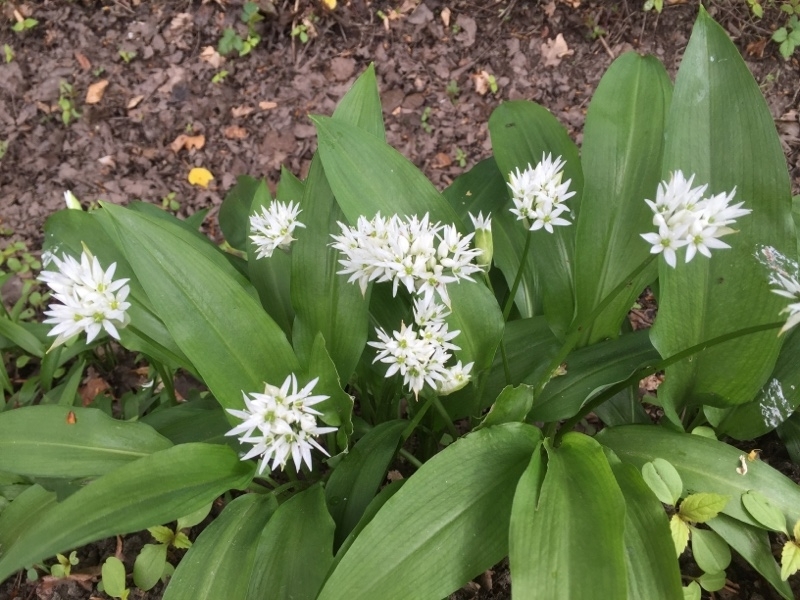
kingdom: Plantae
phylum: Tracheophyta
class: Liliopsida
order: Asparagales
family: Amaryllidaceae
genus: Allium
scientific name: Allium ursinum
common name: Ramsons
